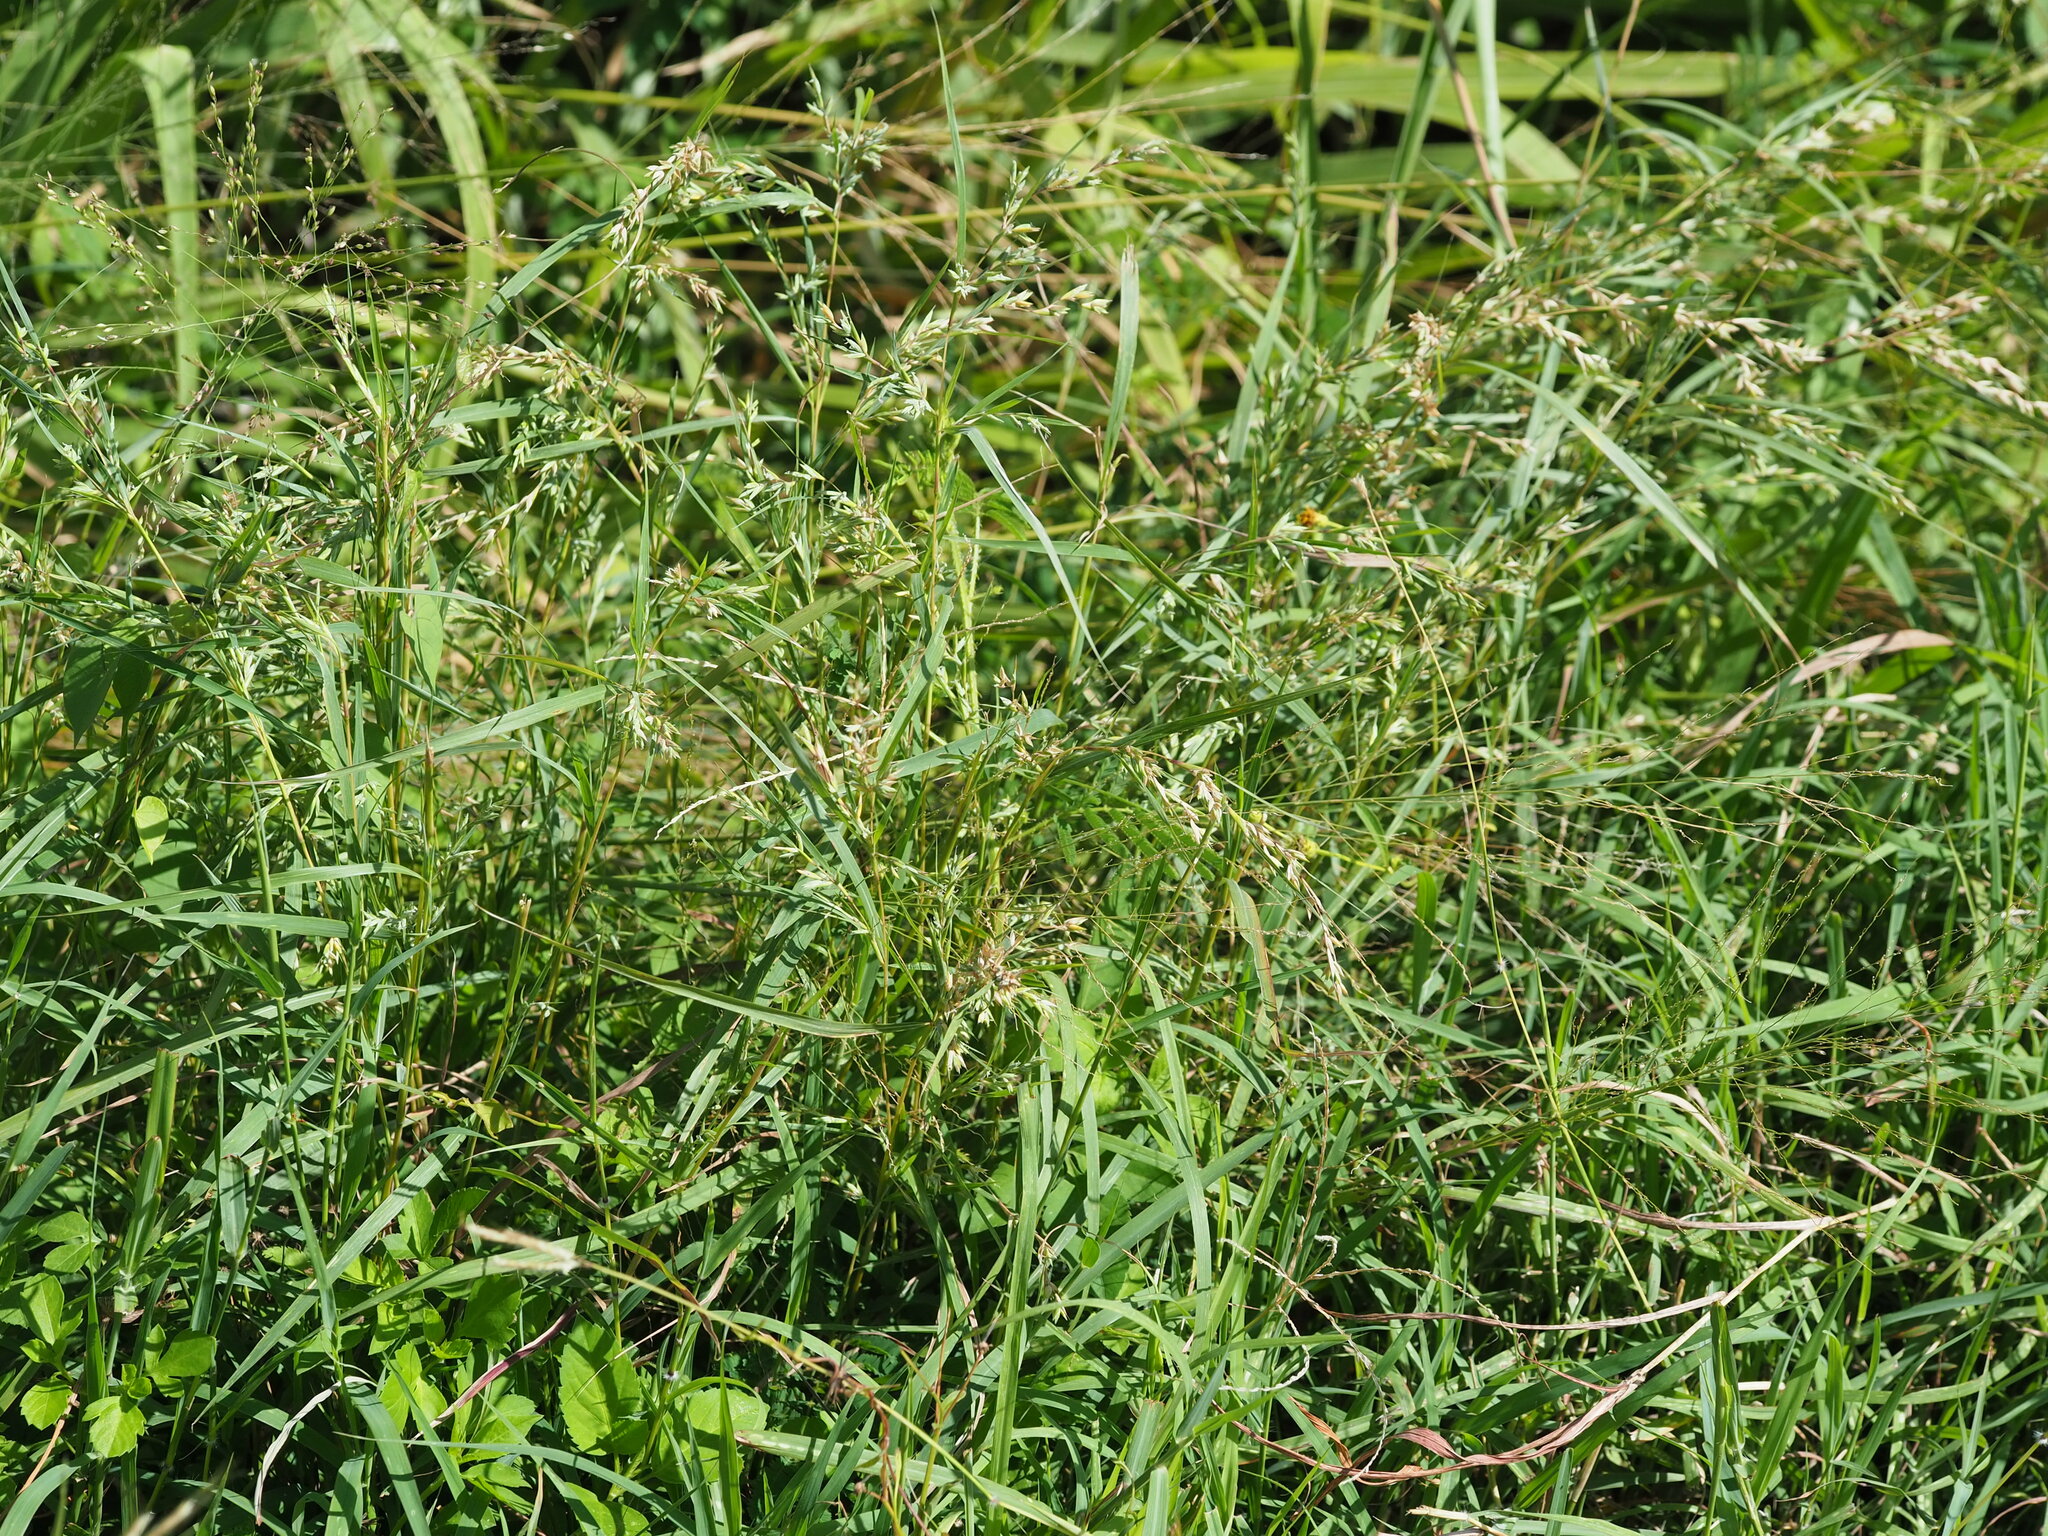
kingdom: Plantae
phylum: Tracheophyta
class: Liliopsida
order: Poales
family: Poaceae
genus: Apluda
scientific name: Apluda mutica
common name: Mauritian grass
